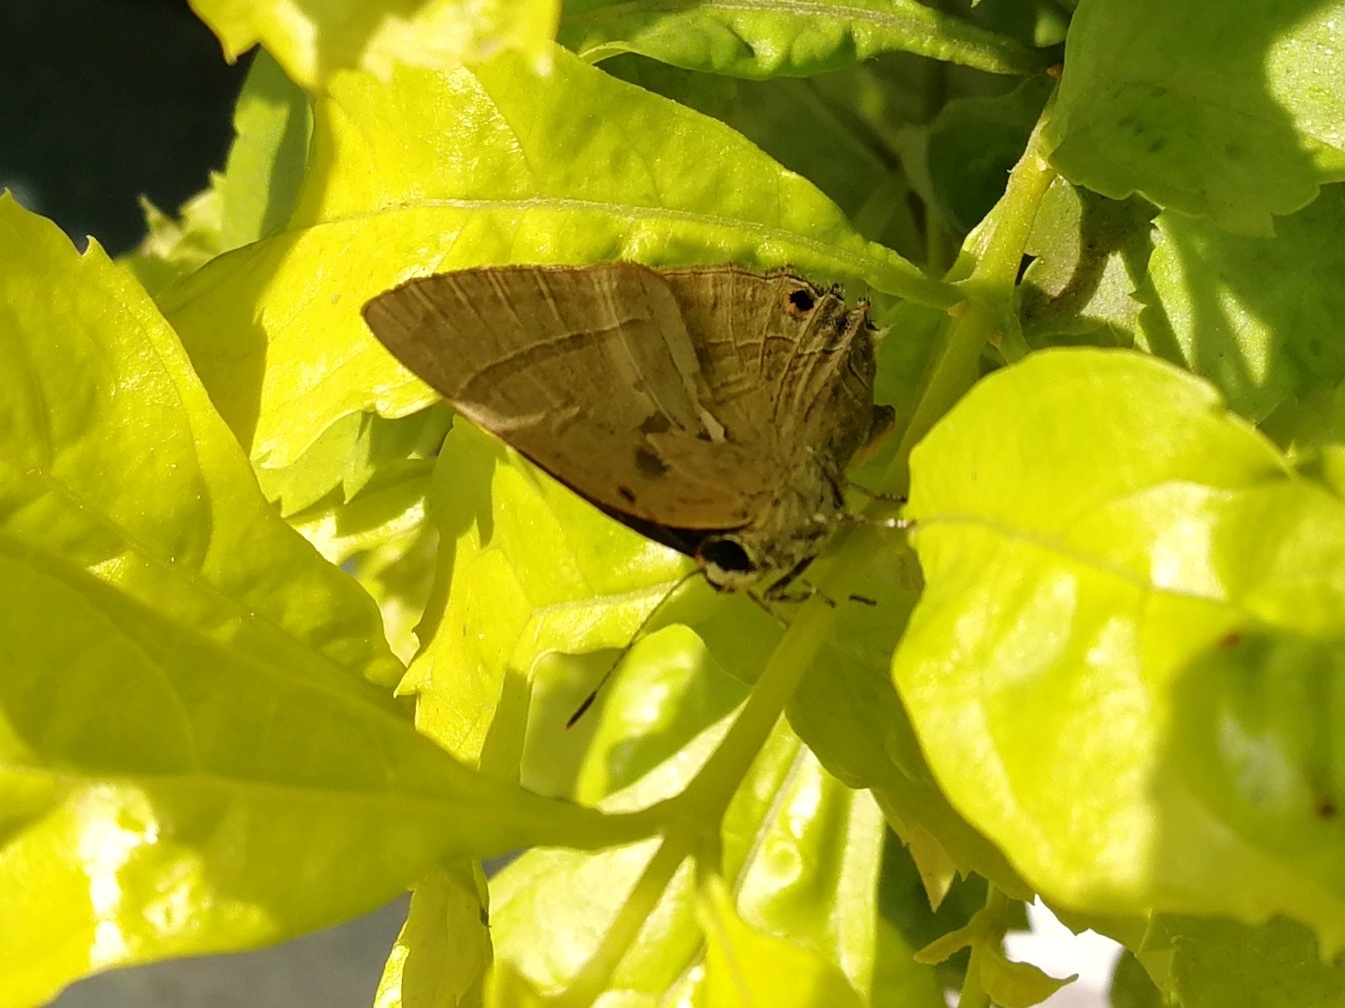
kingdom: Animalia
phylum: Arthropoda
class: Insecta
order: Lepidoptera
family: Lycaenidae
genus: Rapala
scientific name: Rapala manea
